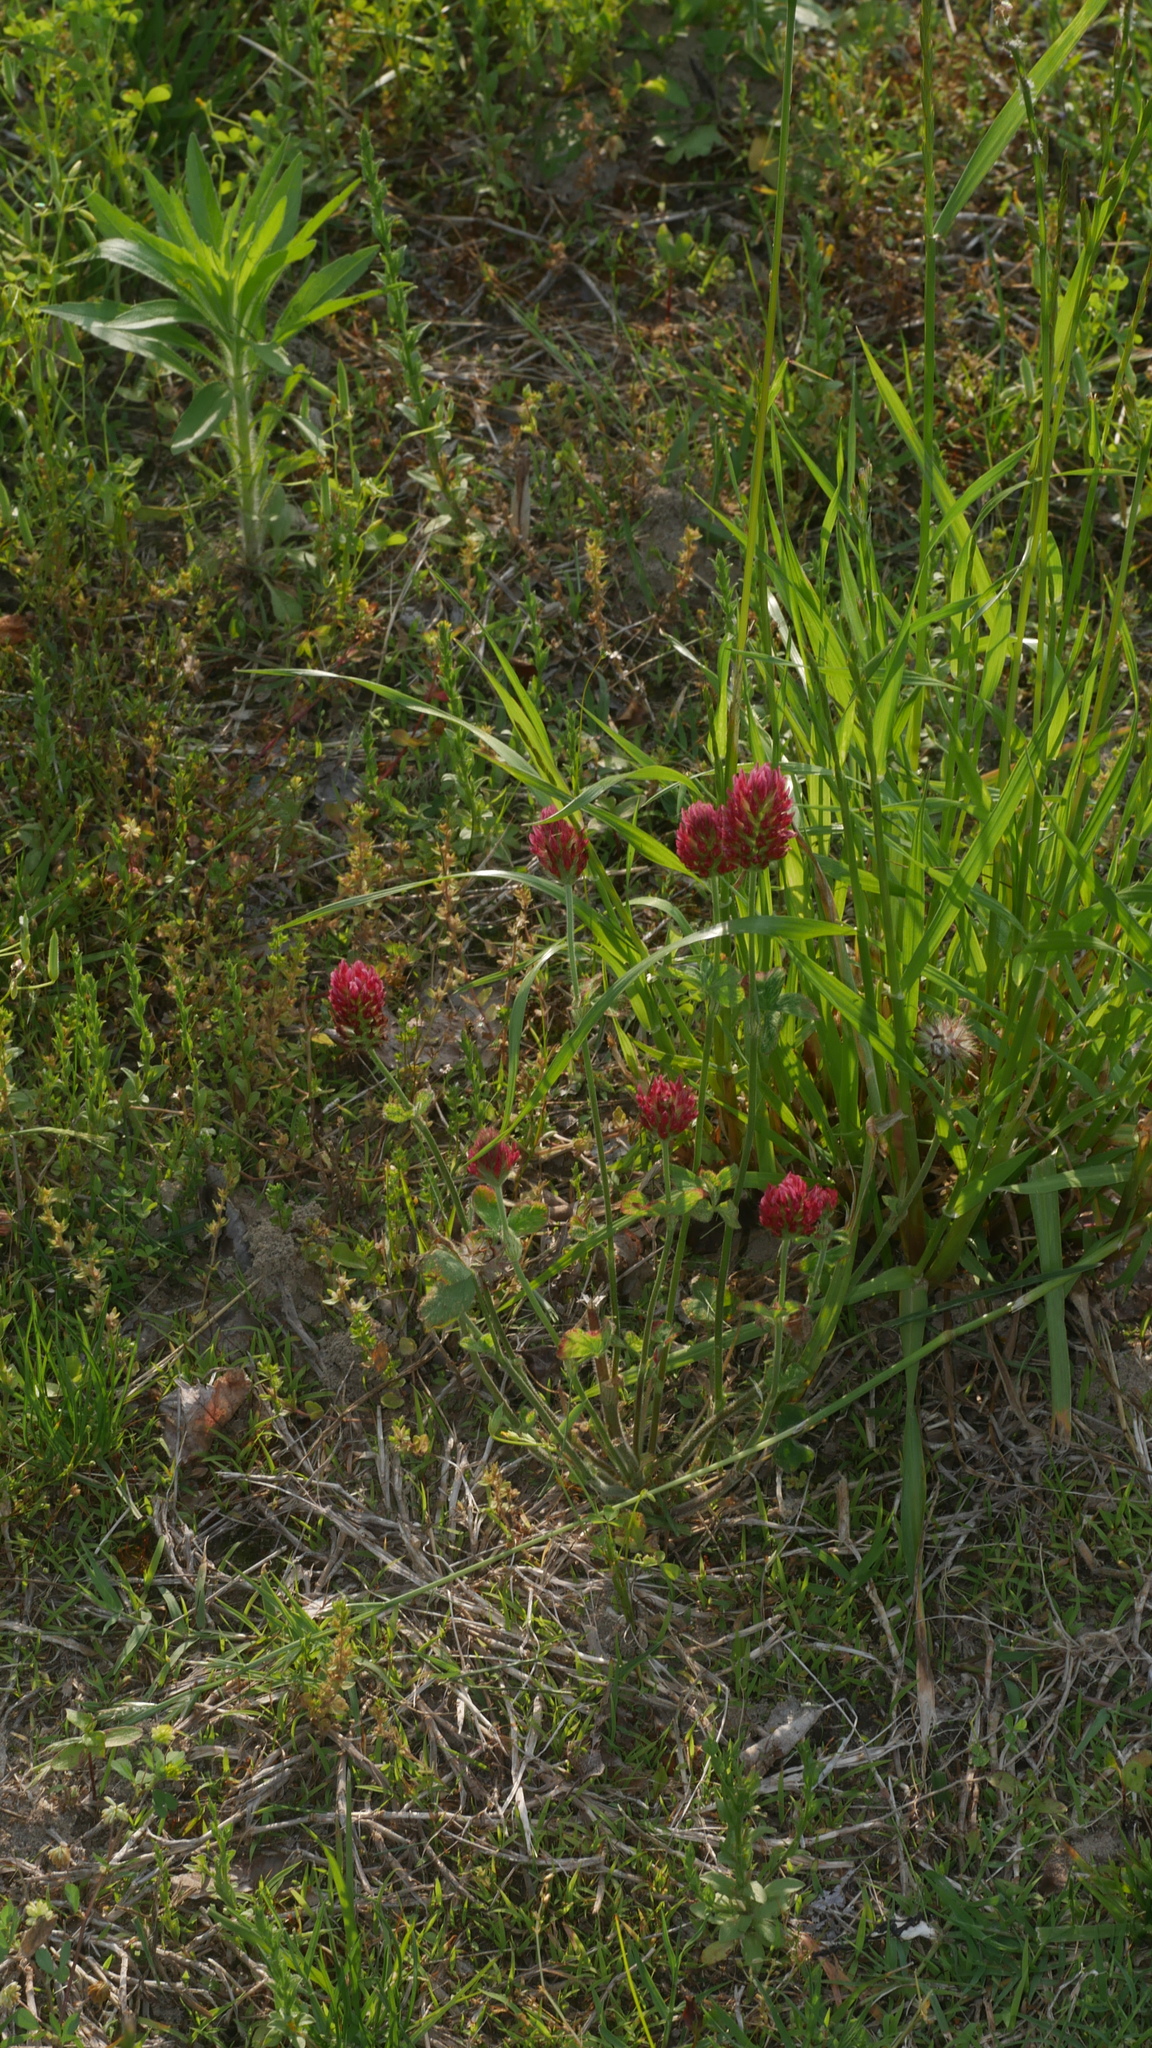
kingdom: Plantae
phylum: Tracheophyta
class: Magnoliopsida
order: Fabales
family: Fabaceae
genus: Trifolium
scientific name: Trifolium incarnatum
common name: Crimson clover
